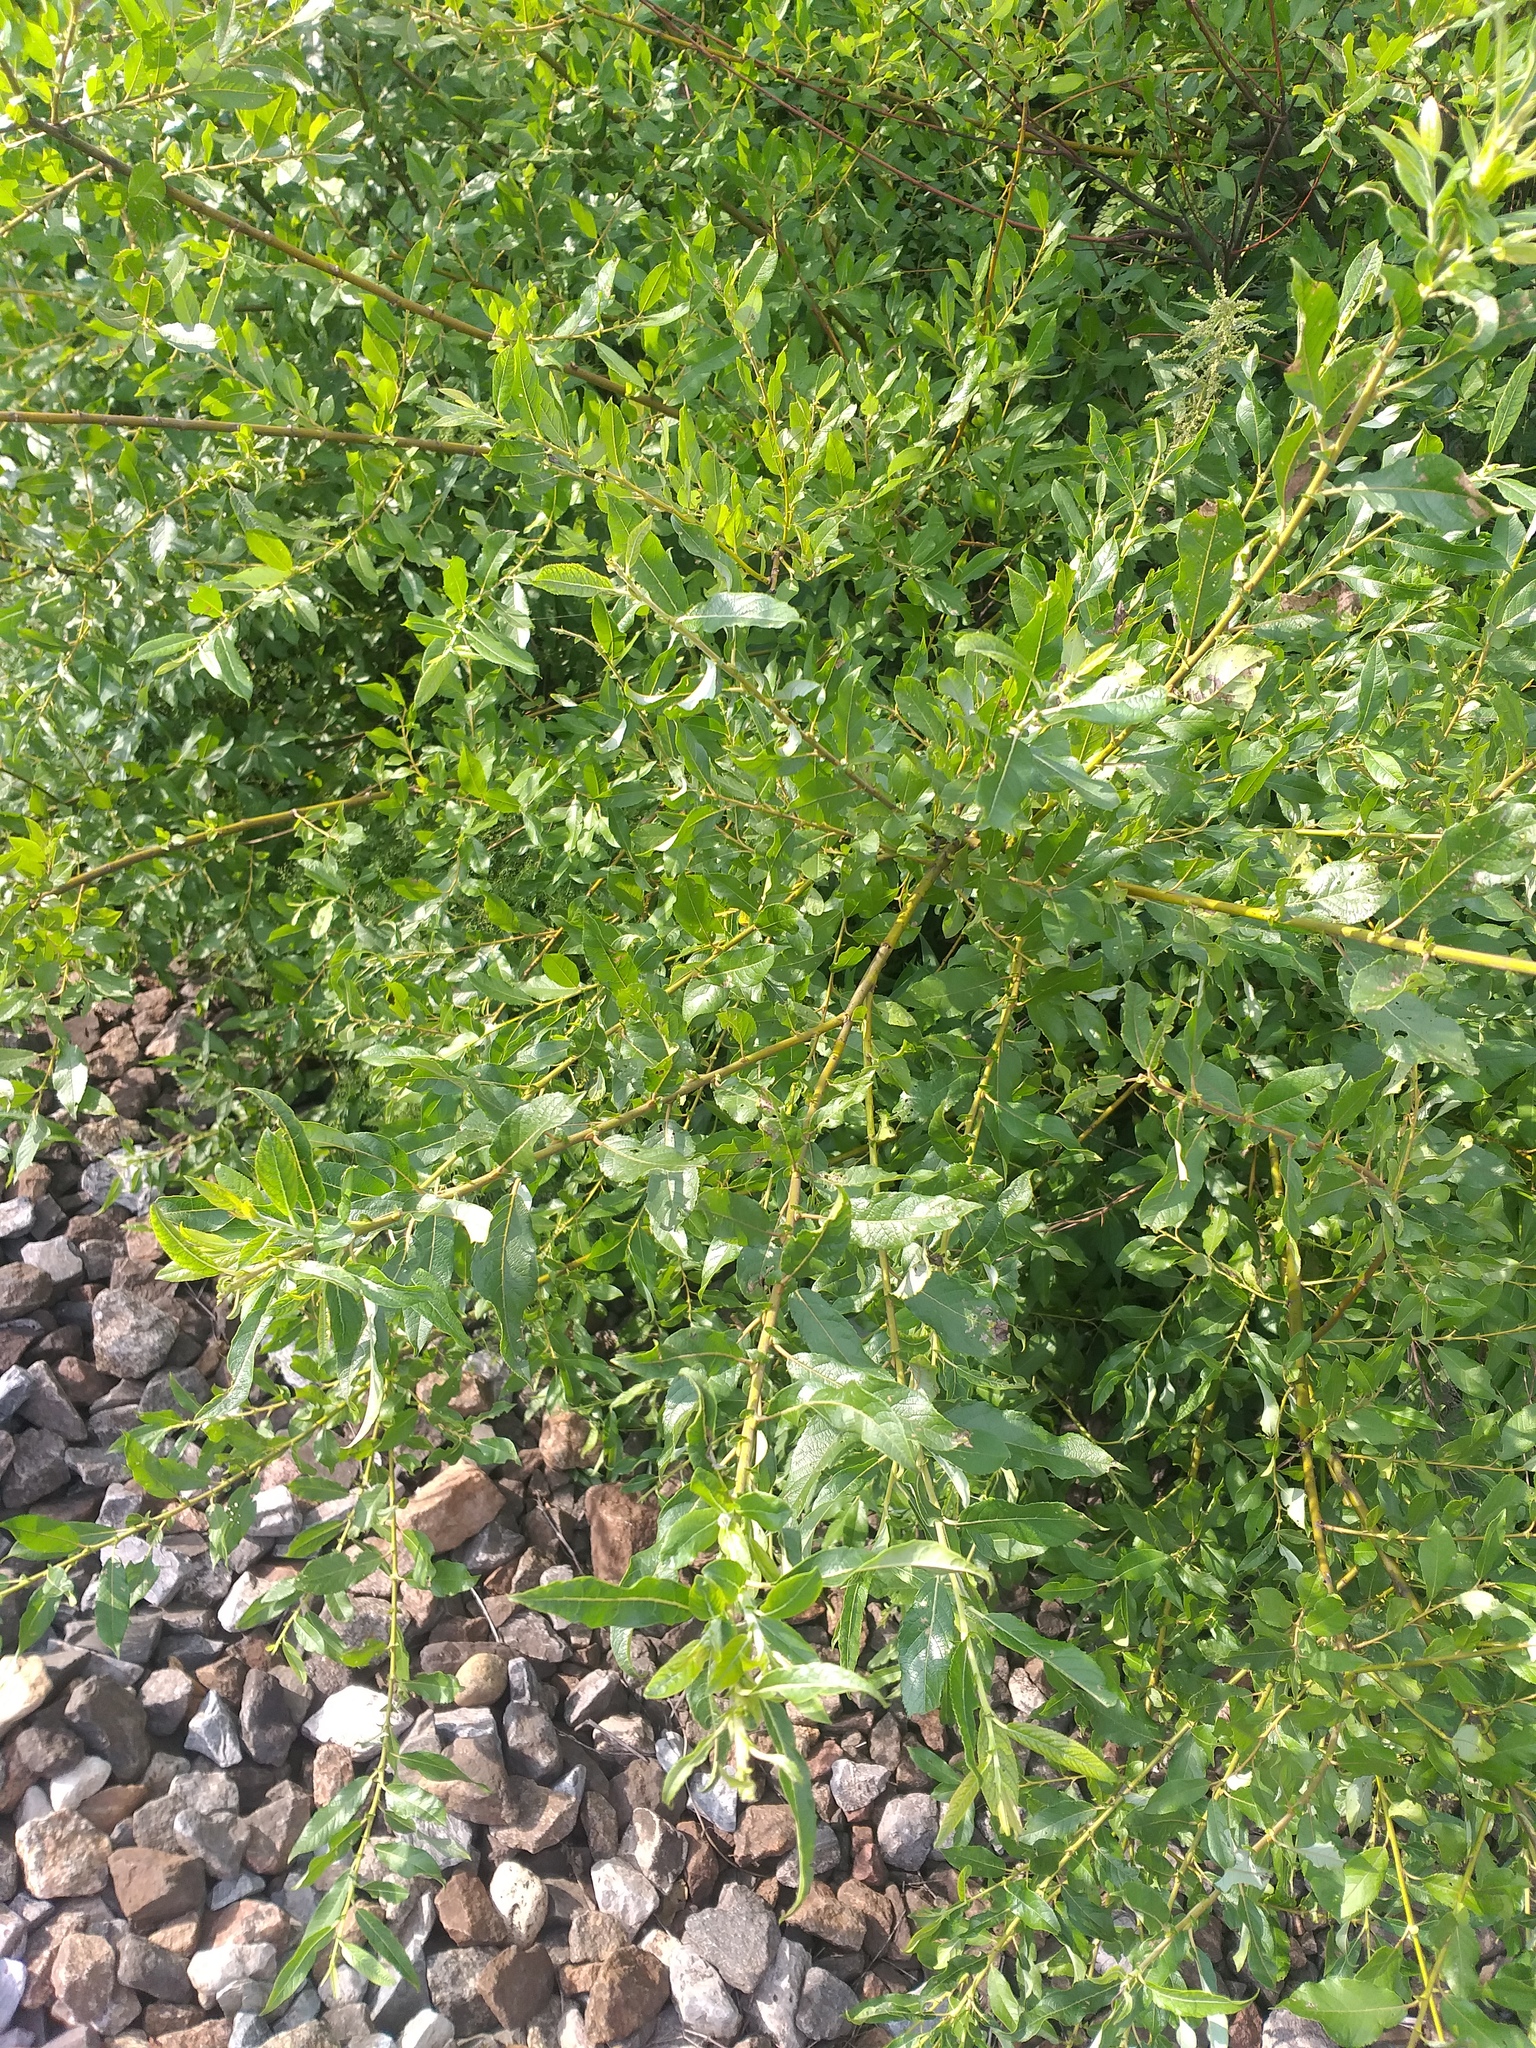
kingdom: Plantae
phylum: Tracheophyta
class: Magnoliopsida
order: Malpighiales
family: Salicaceae
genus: Salix
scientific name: Salix myrsinifolia
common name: Dark-leaved willow
